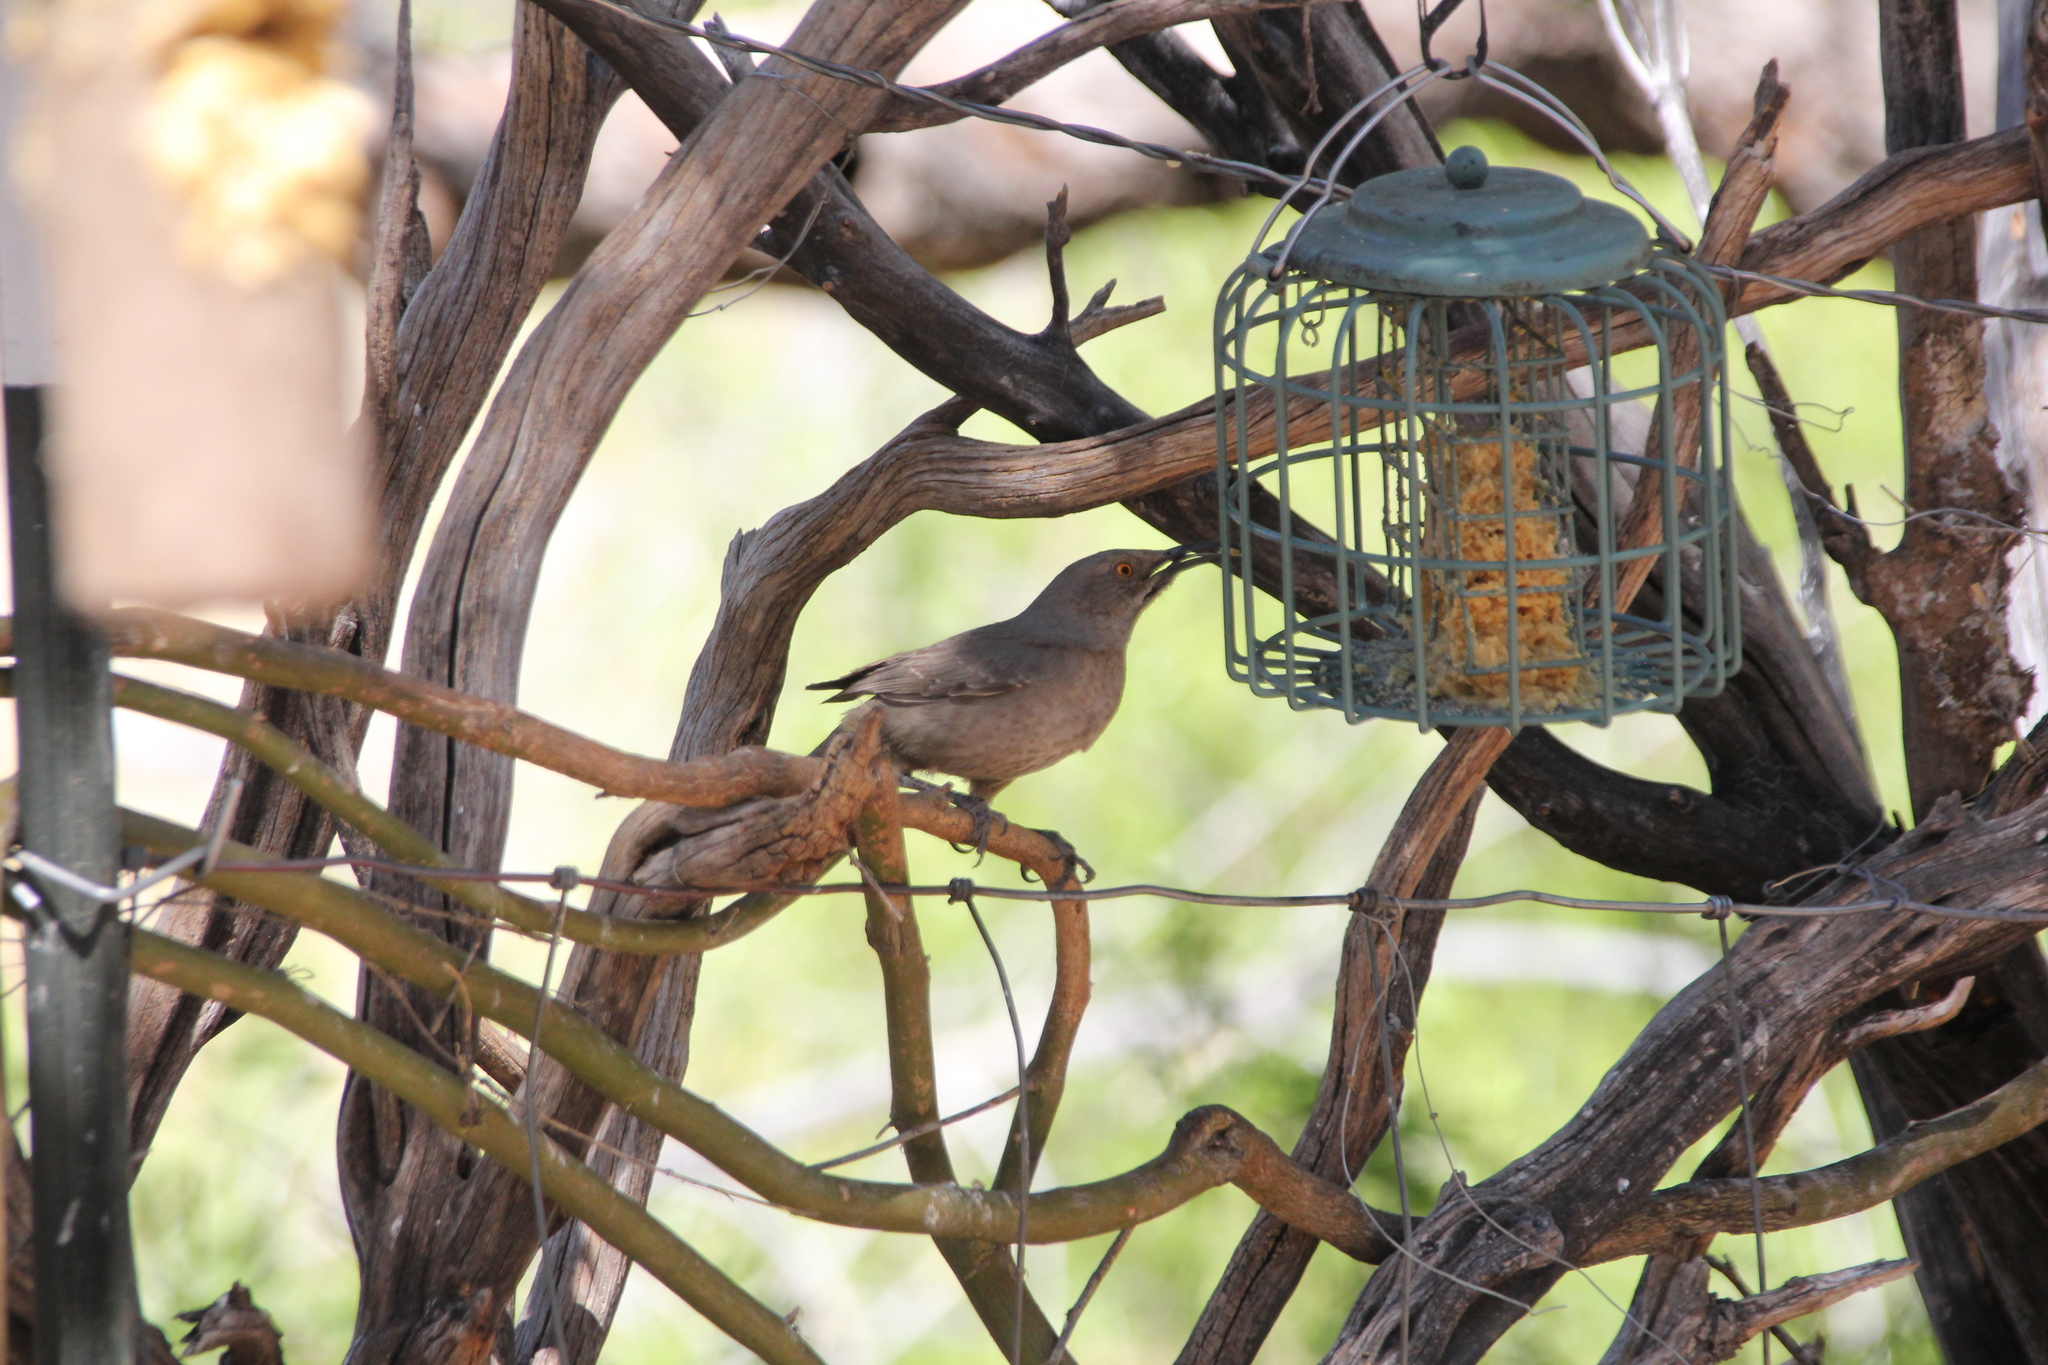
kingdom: Animalia
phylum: Chordata
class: Aves
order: Passeriformes
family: Mimidae
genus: Toxostoma
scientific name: Toxostoma curvirostre
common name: Curve-billed thrasher
